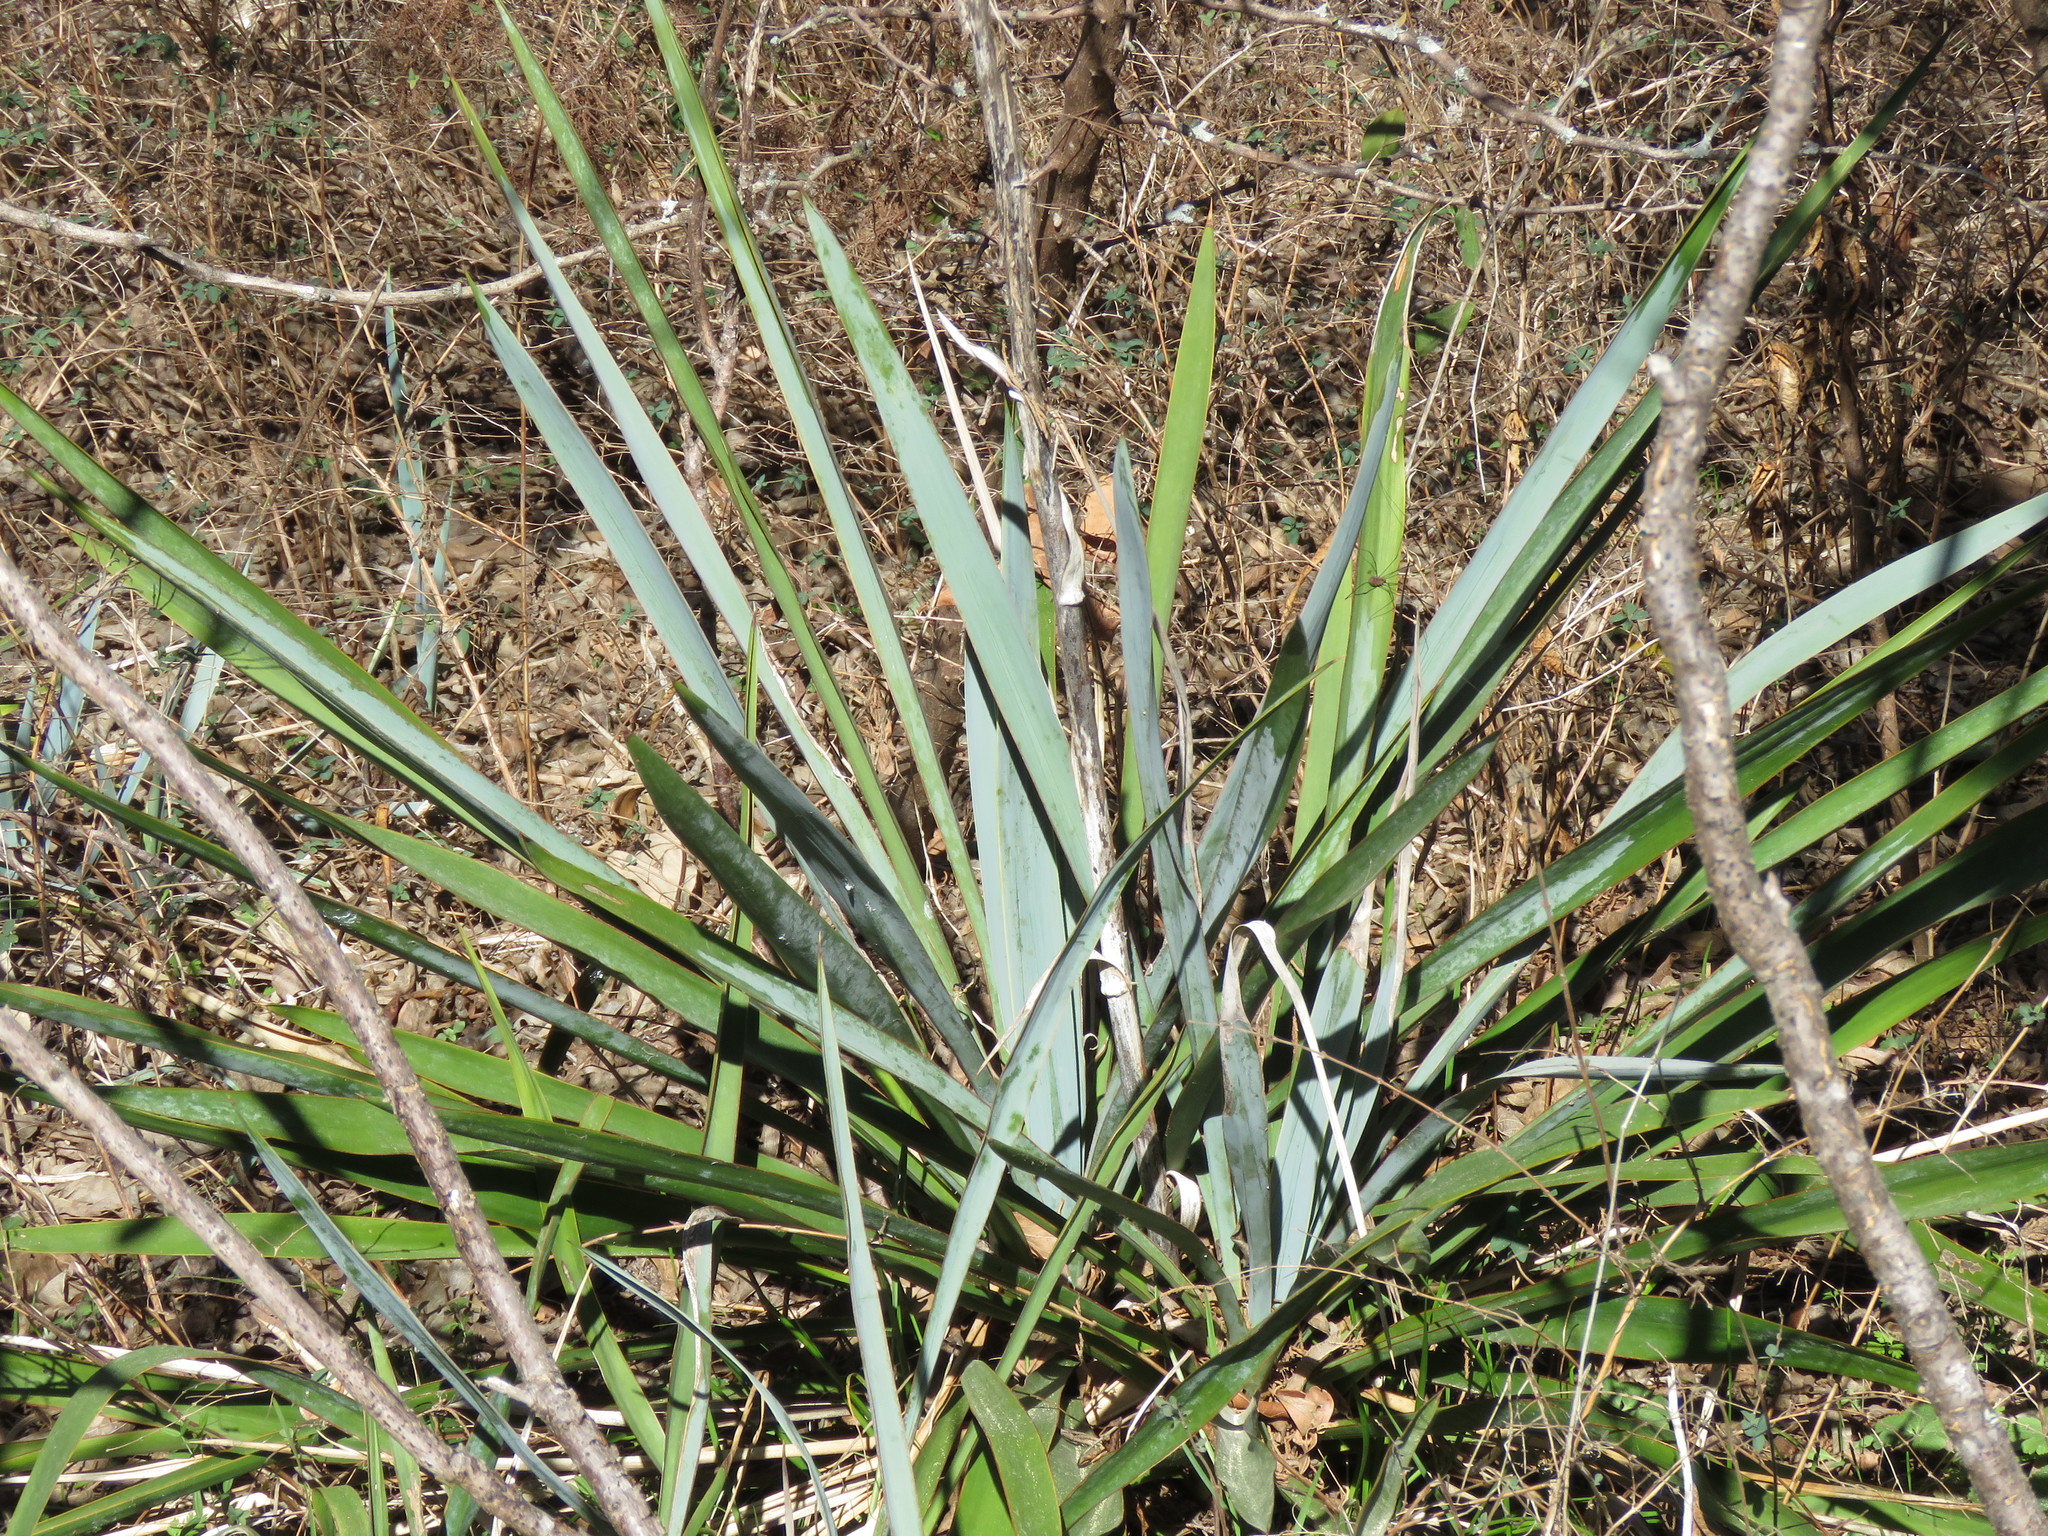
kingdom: Plantae
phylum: Tracheophyta
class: Liliopsida
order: Asparagales
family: Asparagaceae
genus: Yucca
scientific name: Yucca pallida
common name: Pale leaf yucca
